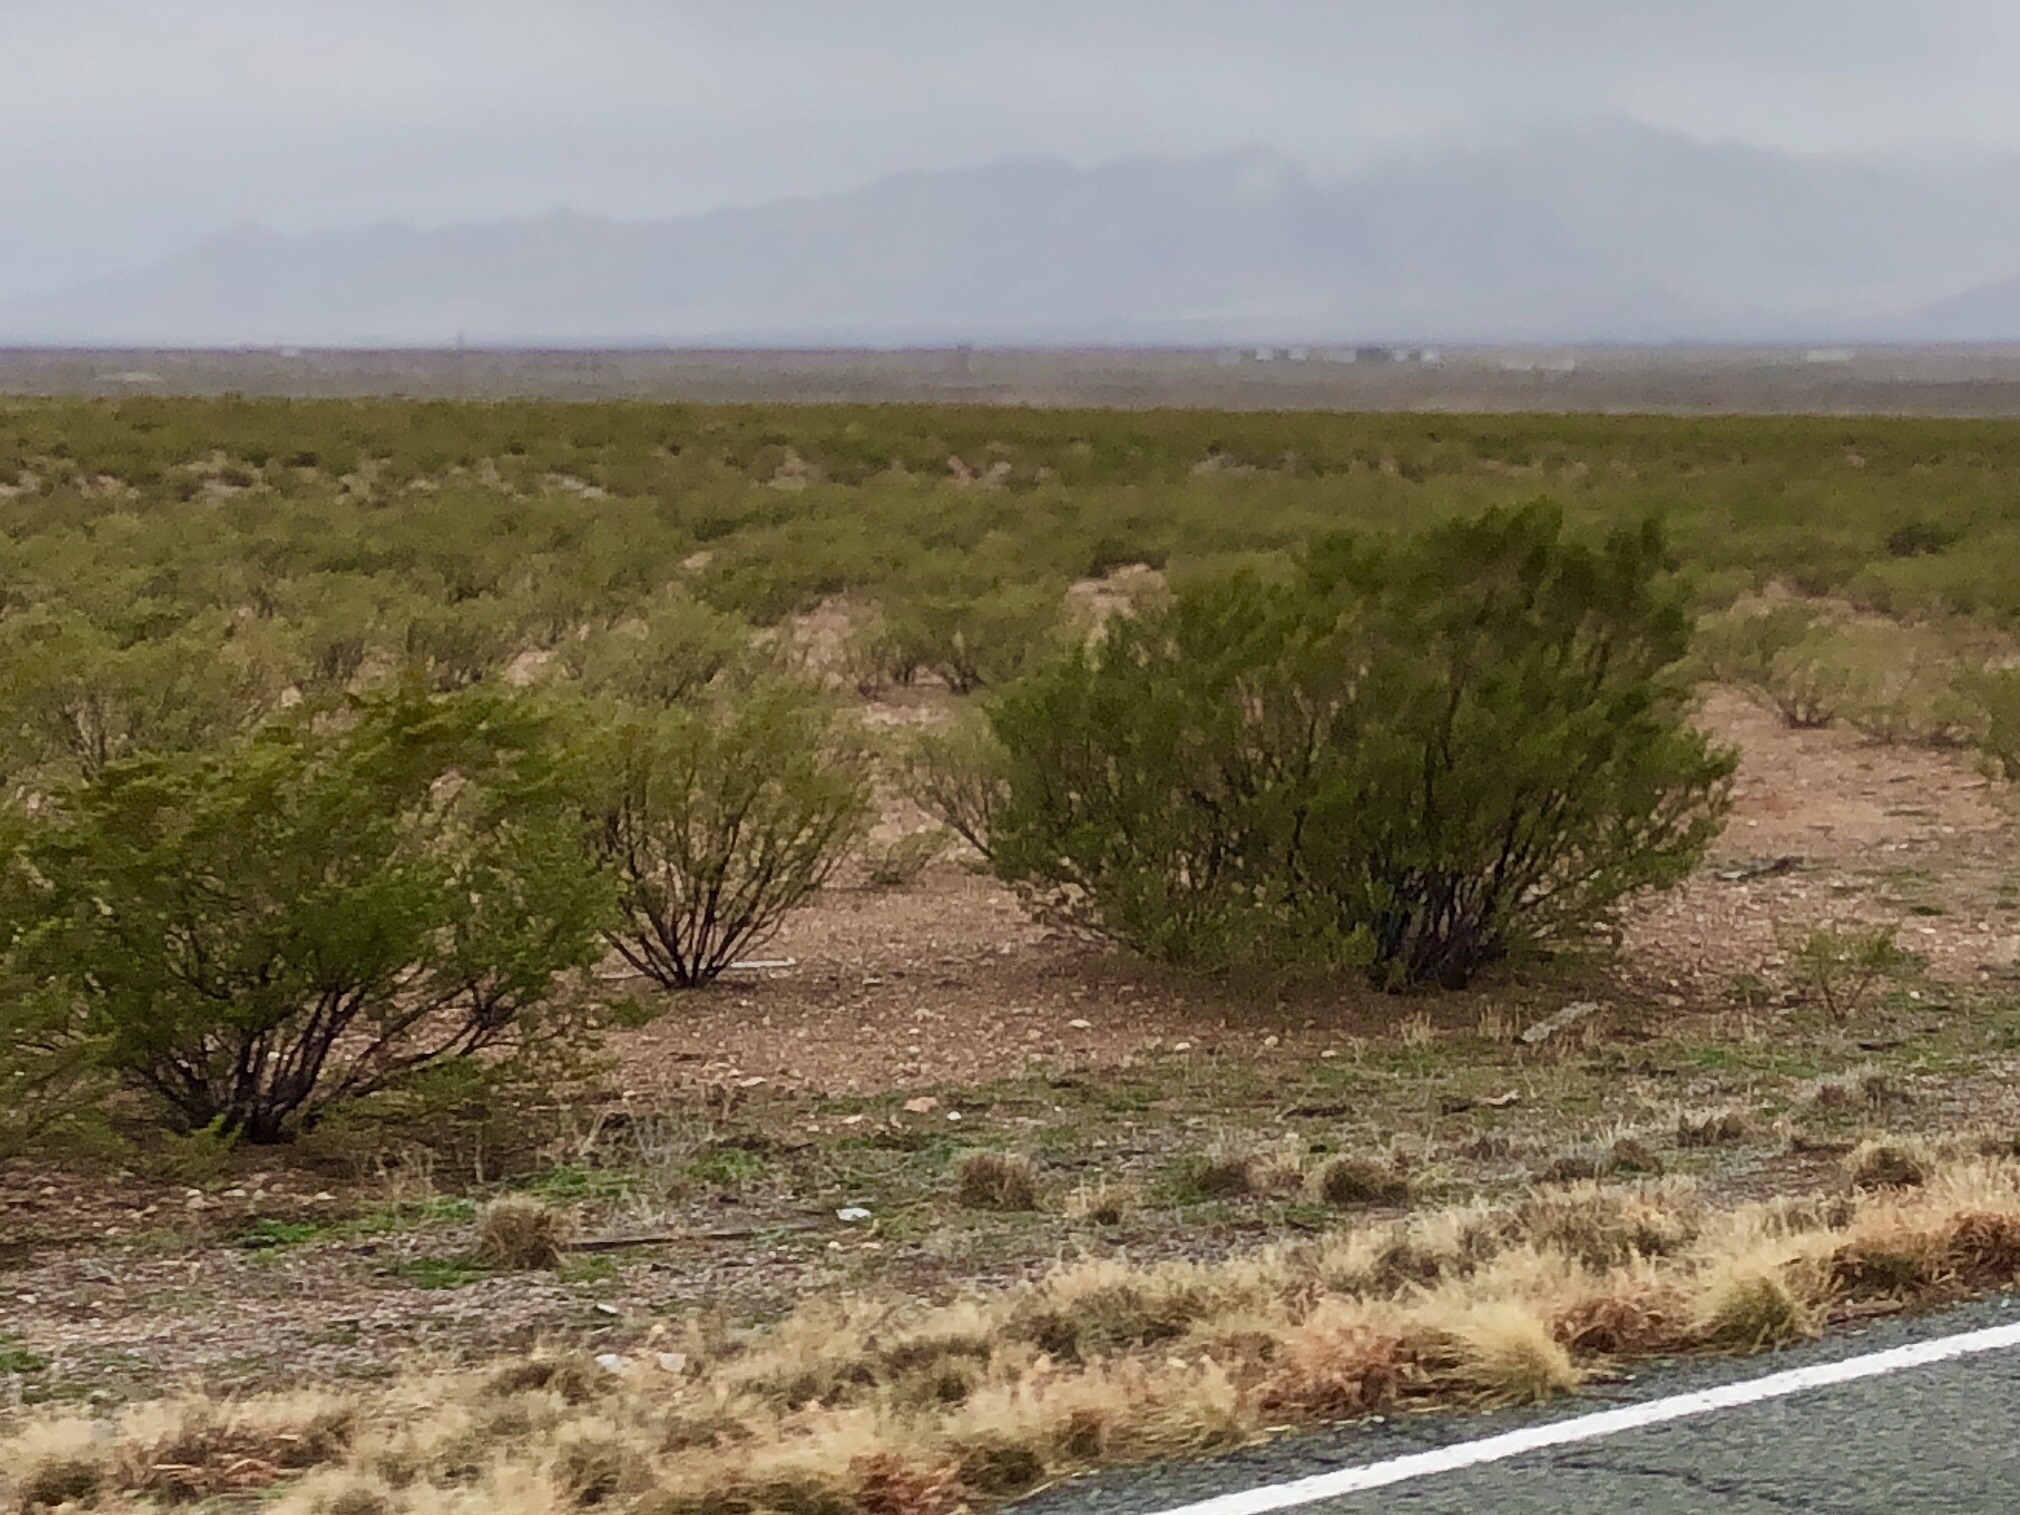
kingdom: Plantae
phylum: Tracheophyta
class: Magnoliopsida
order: Zygophyllales
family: Zygophyllaceae
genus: Larrea
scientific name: Larrea tridentata
